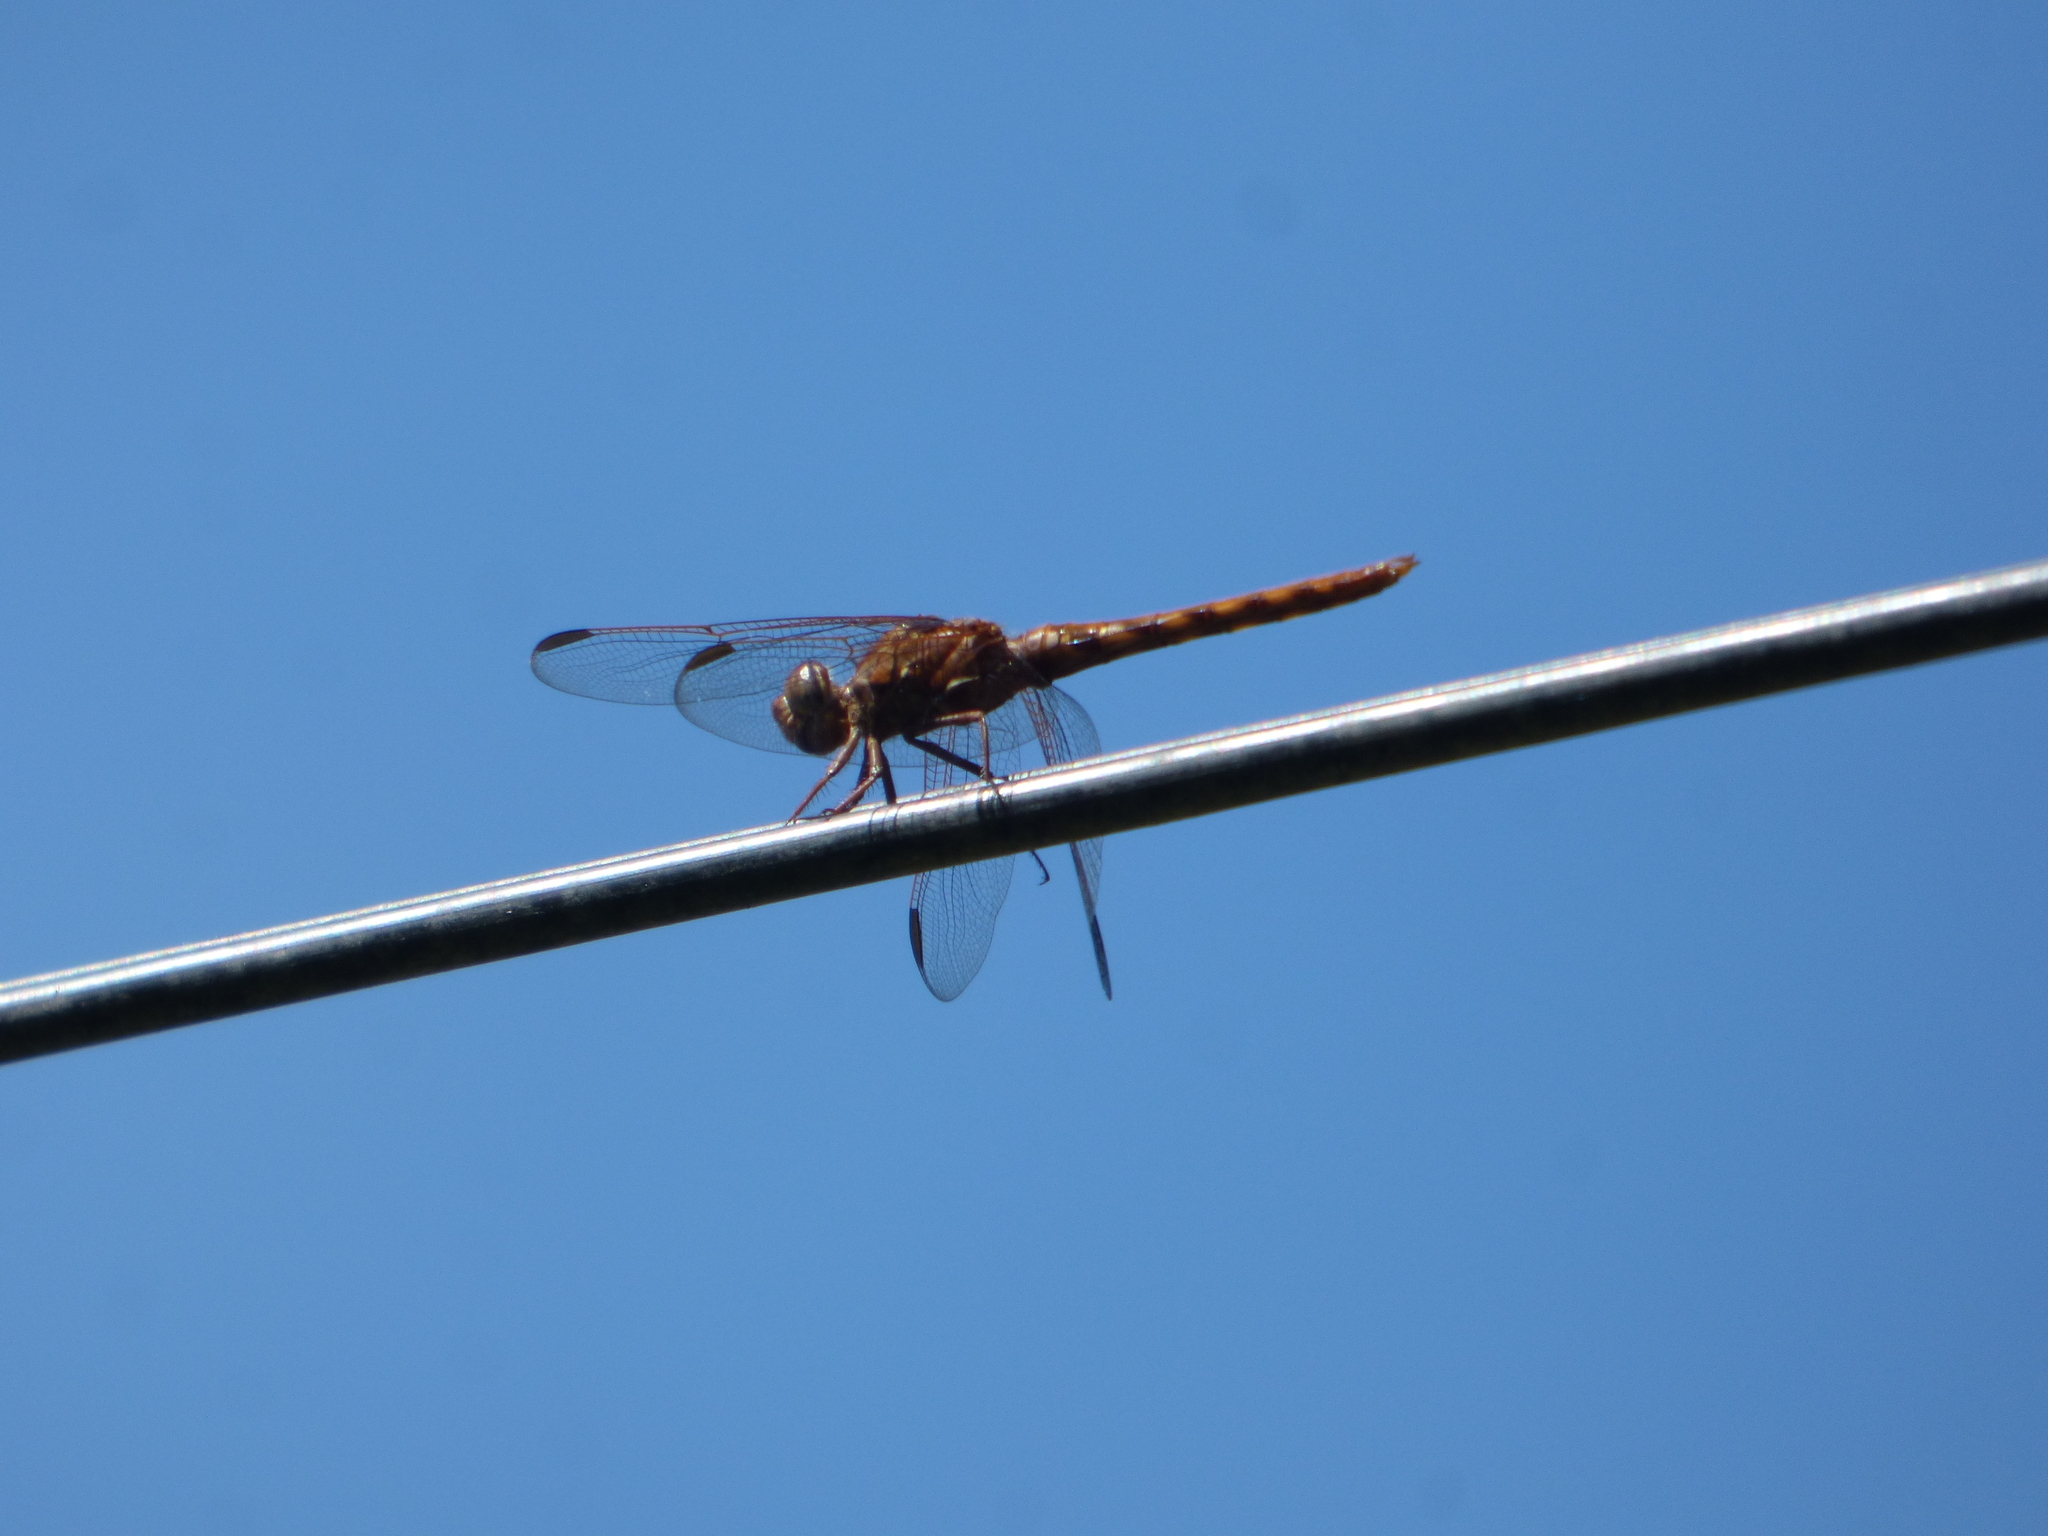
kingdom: Animalia
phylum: Arthropoda
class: Insecta
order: Odonata
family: Libellulidae
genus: Orthemis
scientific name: Orthemis nodiplaga
